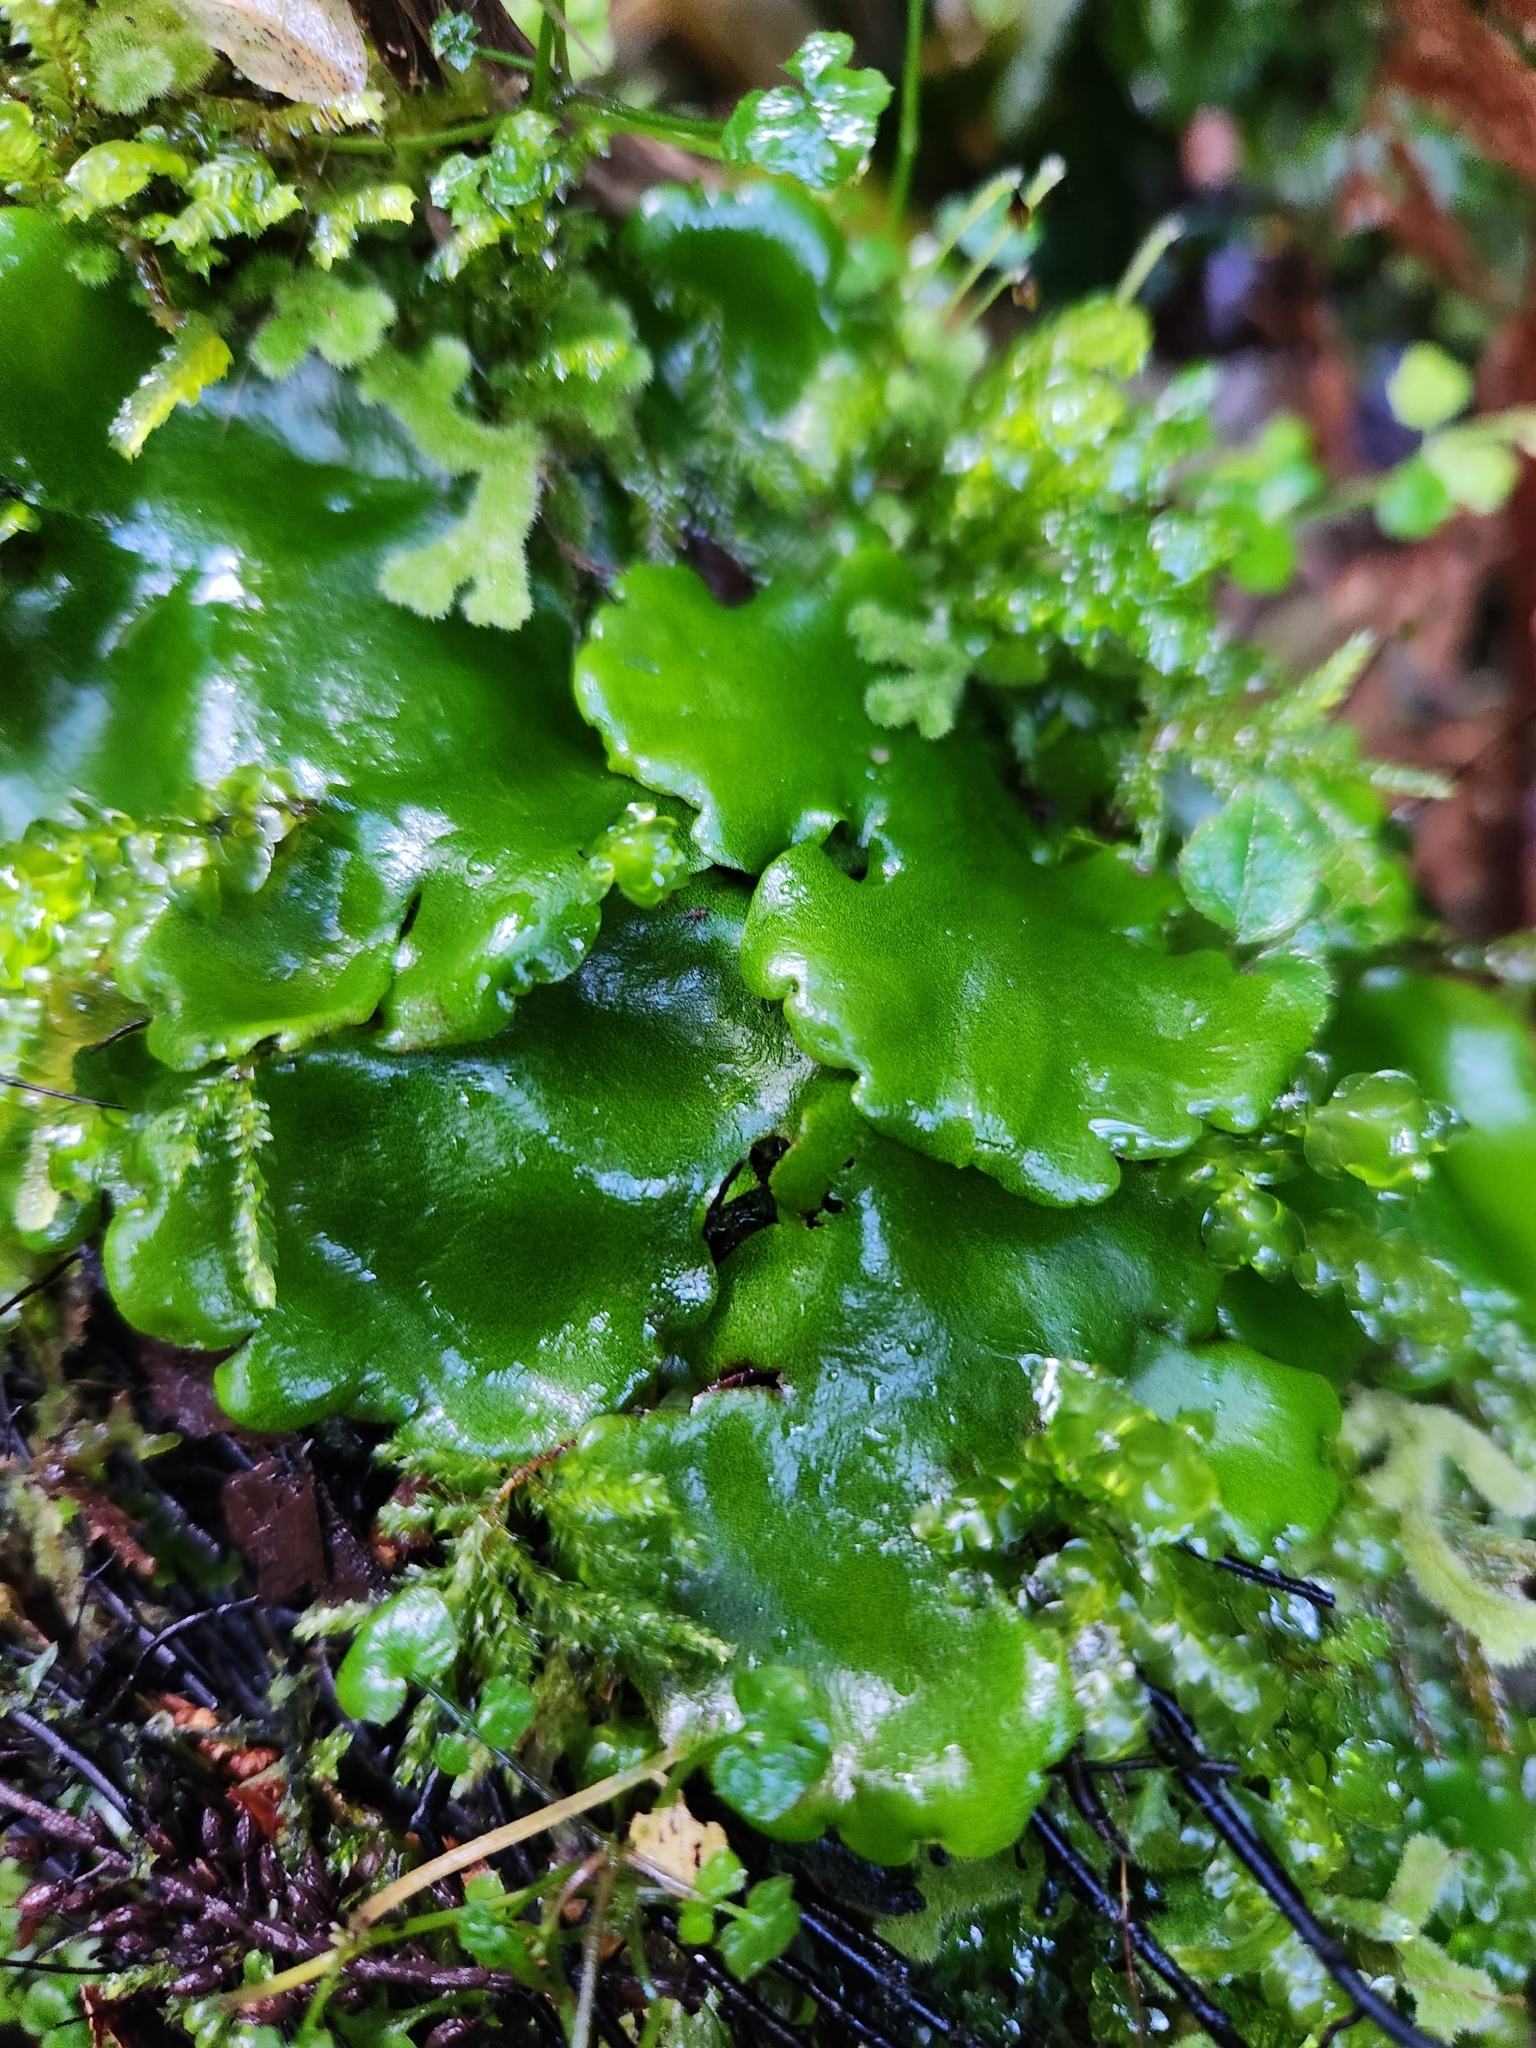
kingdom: Plantae
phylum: Marchantiophyta
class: Marchantiopsida
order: Marchantiales
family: Monocleaceae
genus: Monoclea
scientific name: Monoclea forsteri
